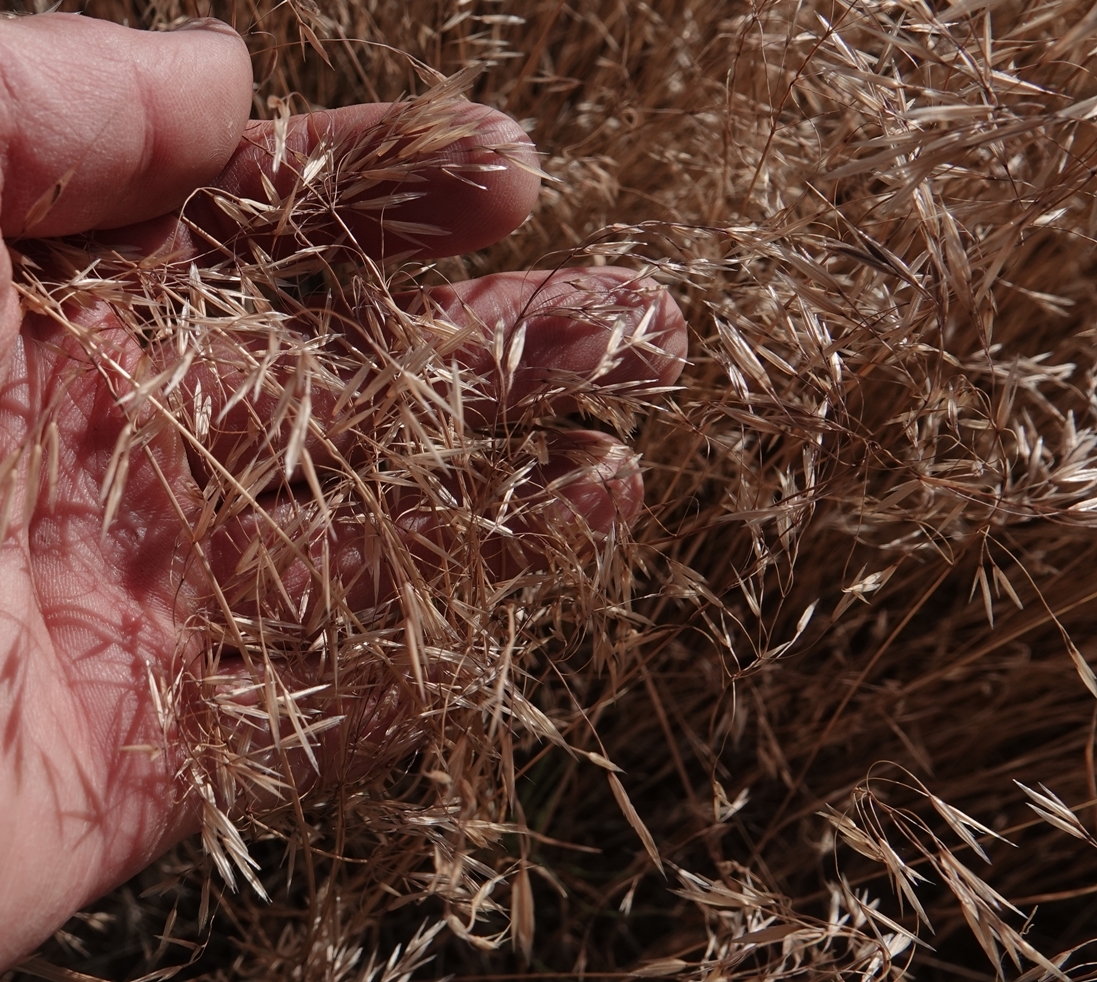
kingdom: Plantae
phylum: Tracheophyta
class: Liliopsida
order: Poales
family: Poaceae
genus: Bromus
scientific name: Bromus tectorum
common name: Cheatgrass
